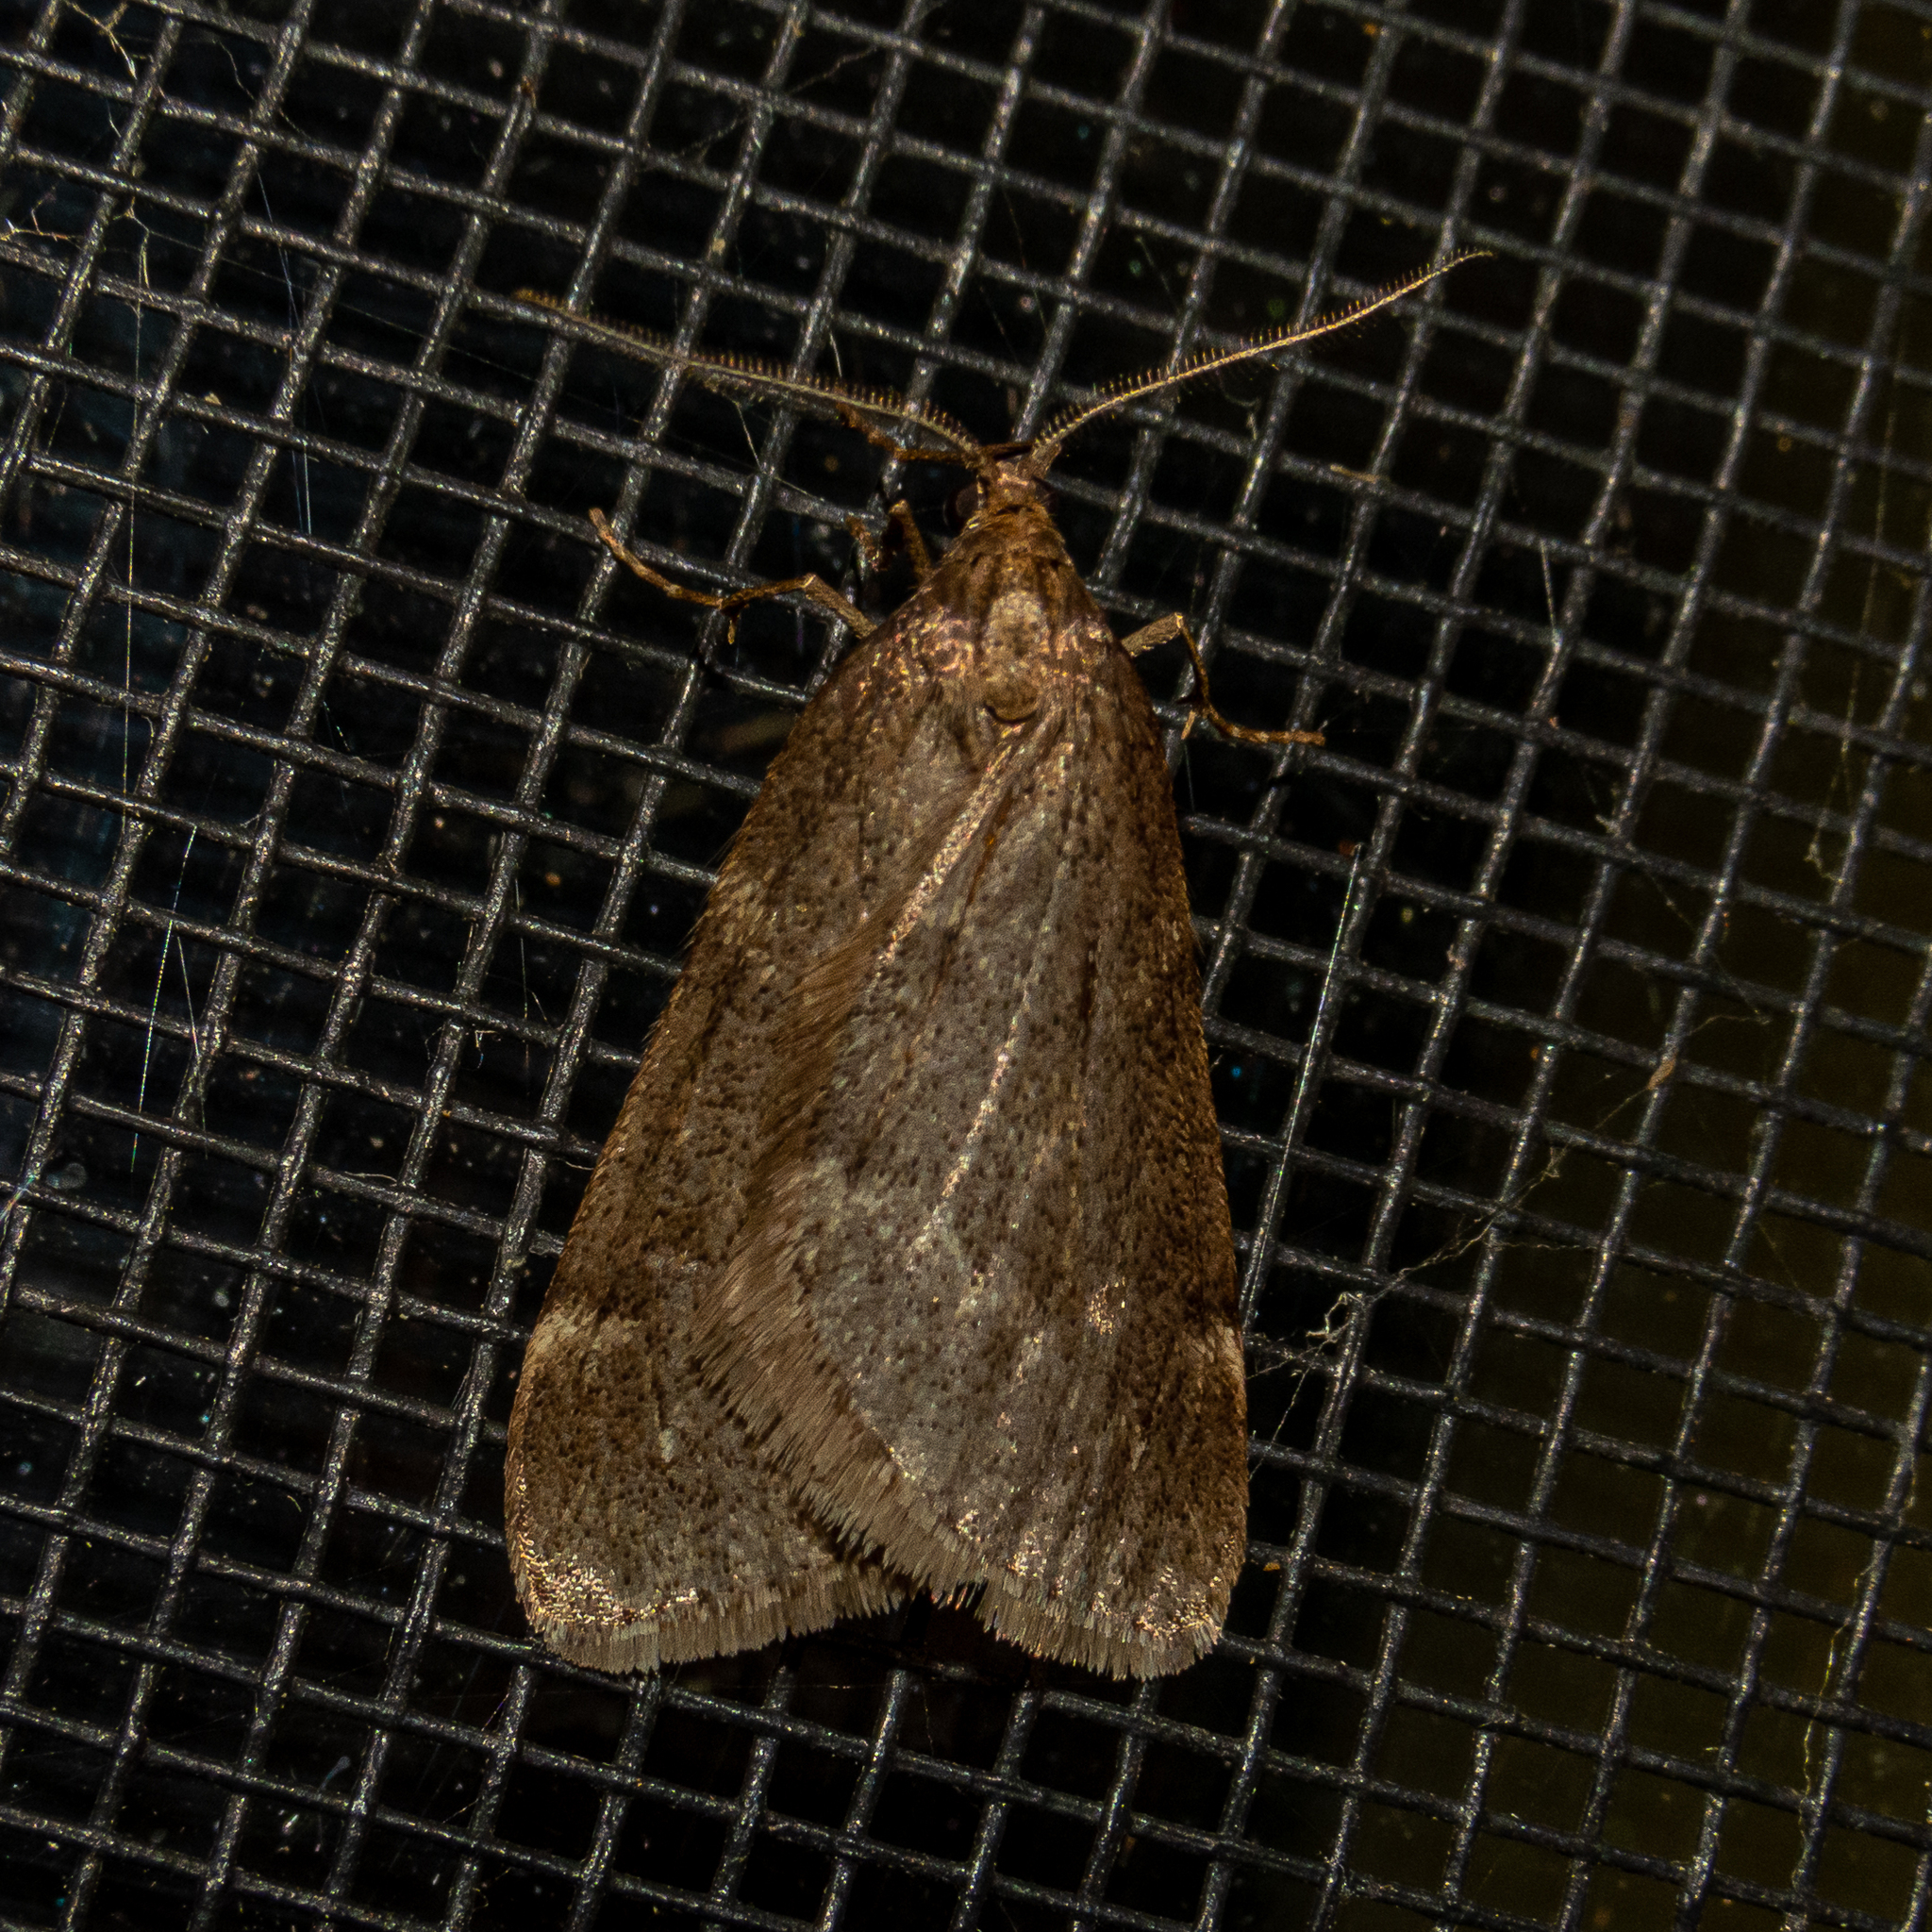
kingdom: Animalia
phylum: Arthropoda
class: Insecta
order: Lepidoptera
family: Geometridae
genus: Alsophila
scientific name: Alsophila pometaria
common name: Fall cankerworm
